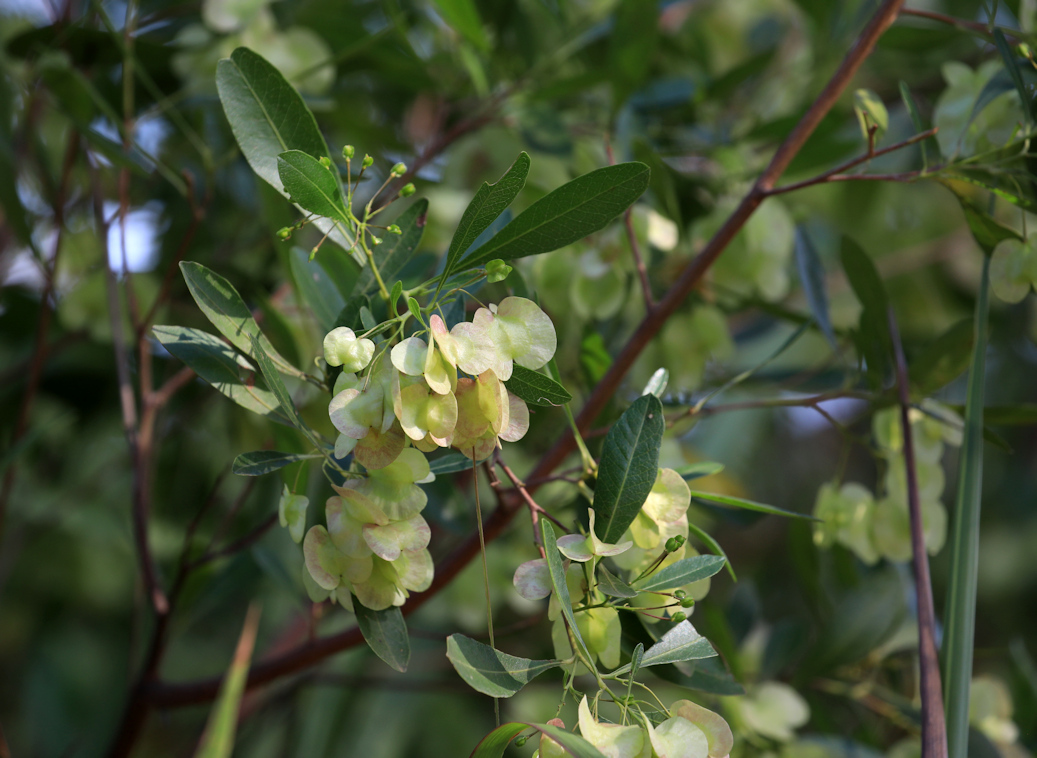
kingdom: Plantae
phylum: Tracheophyta
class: Magnoliopsida
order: Sapindales
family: Sapindaceae
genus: Dodonaea
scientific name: Dodonaea viscosa
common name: Hopbush
